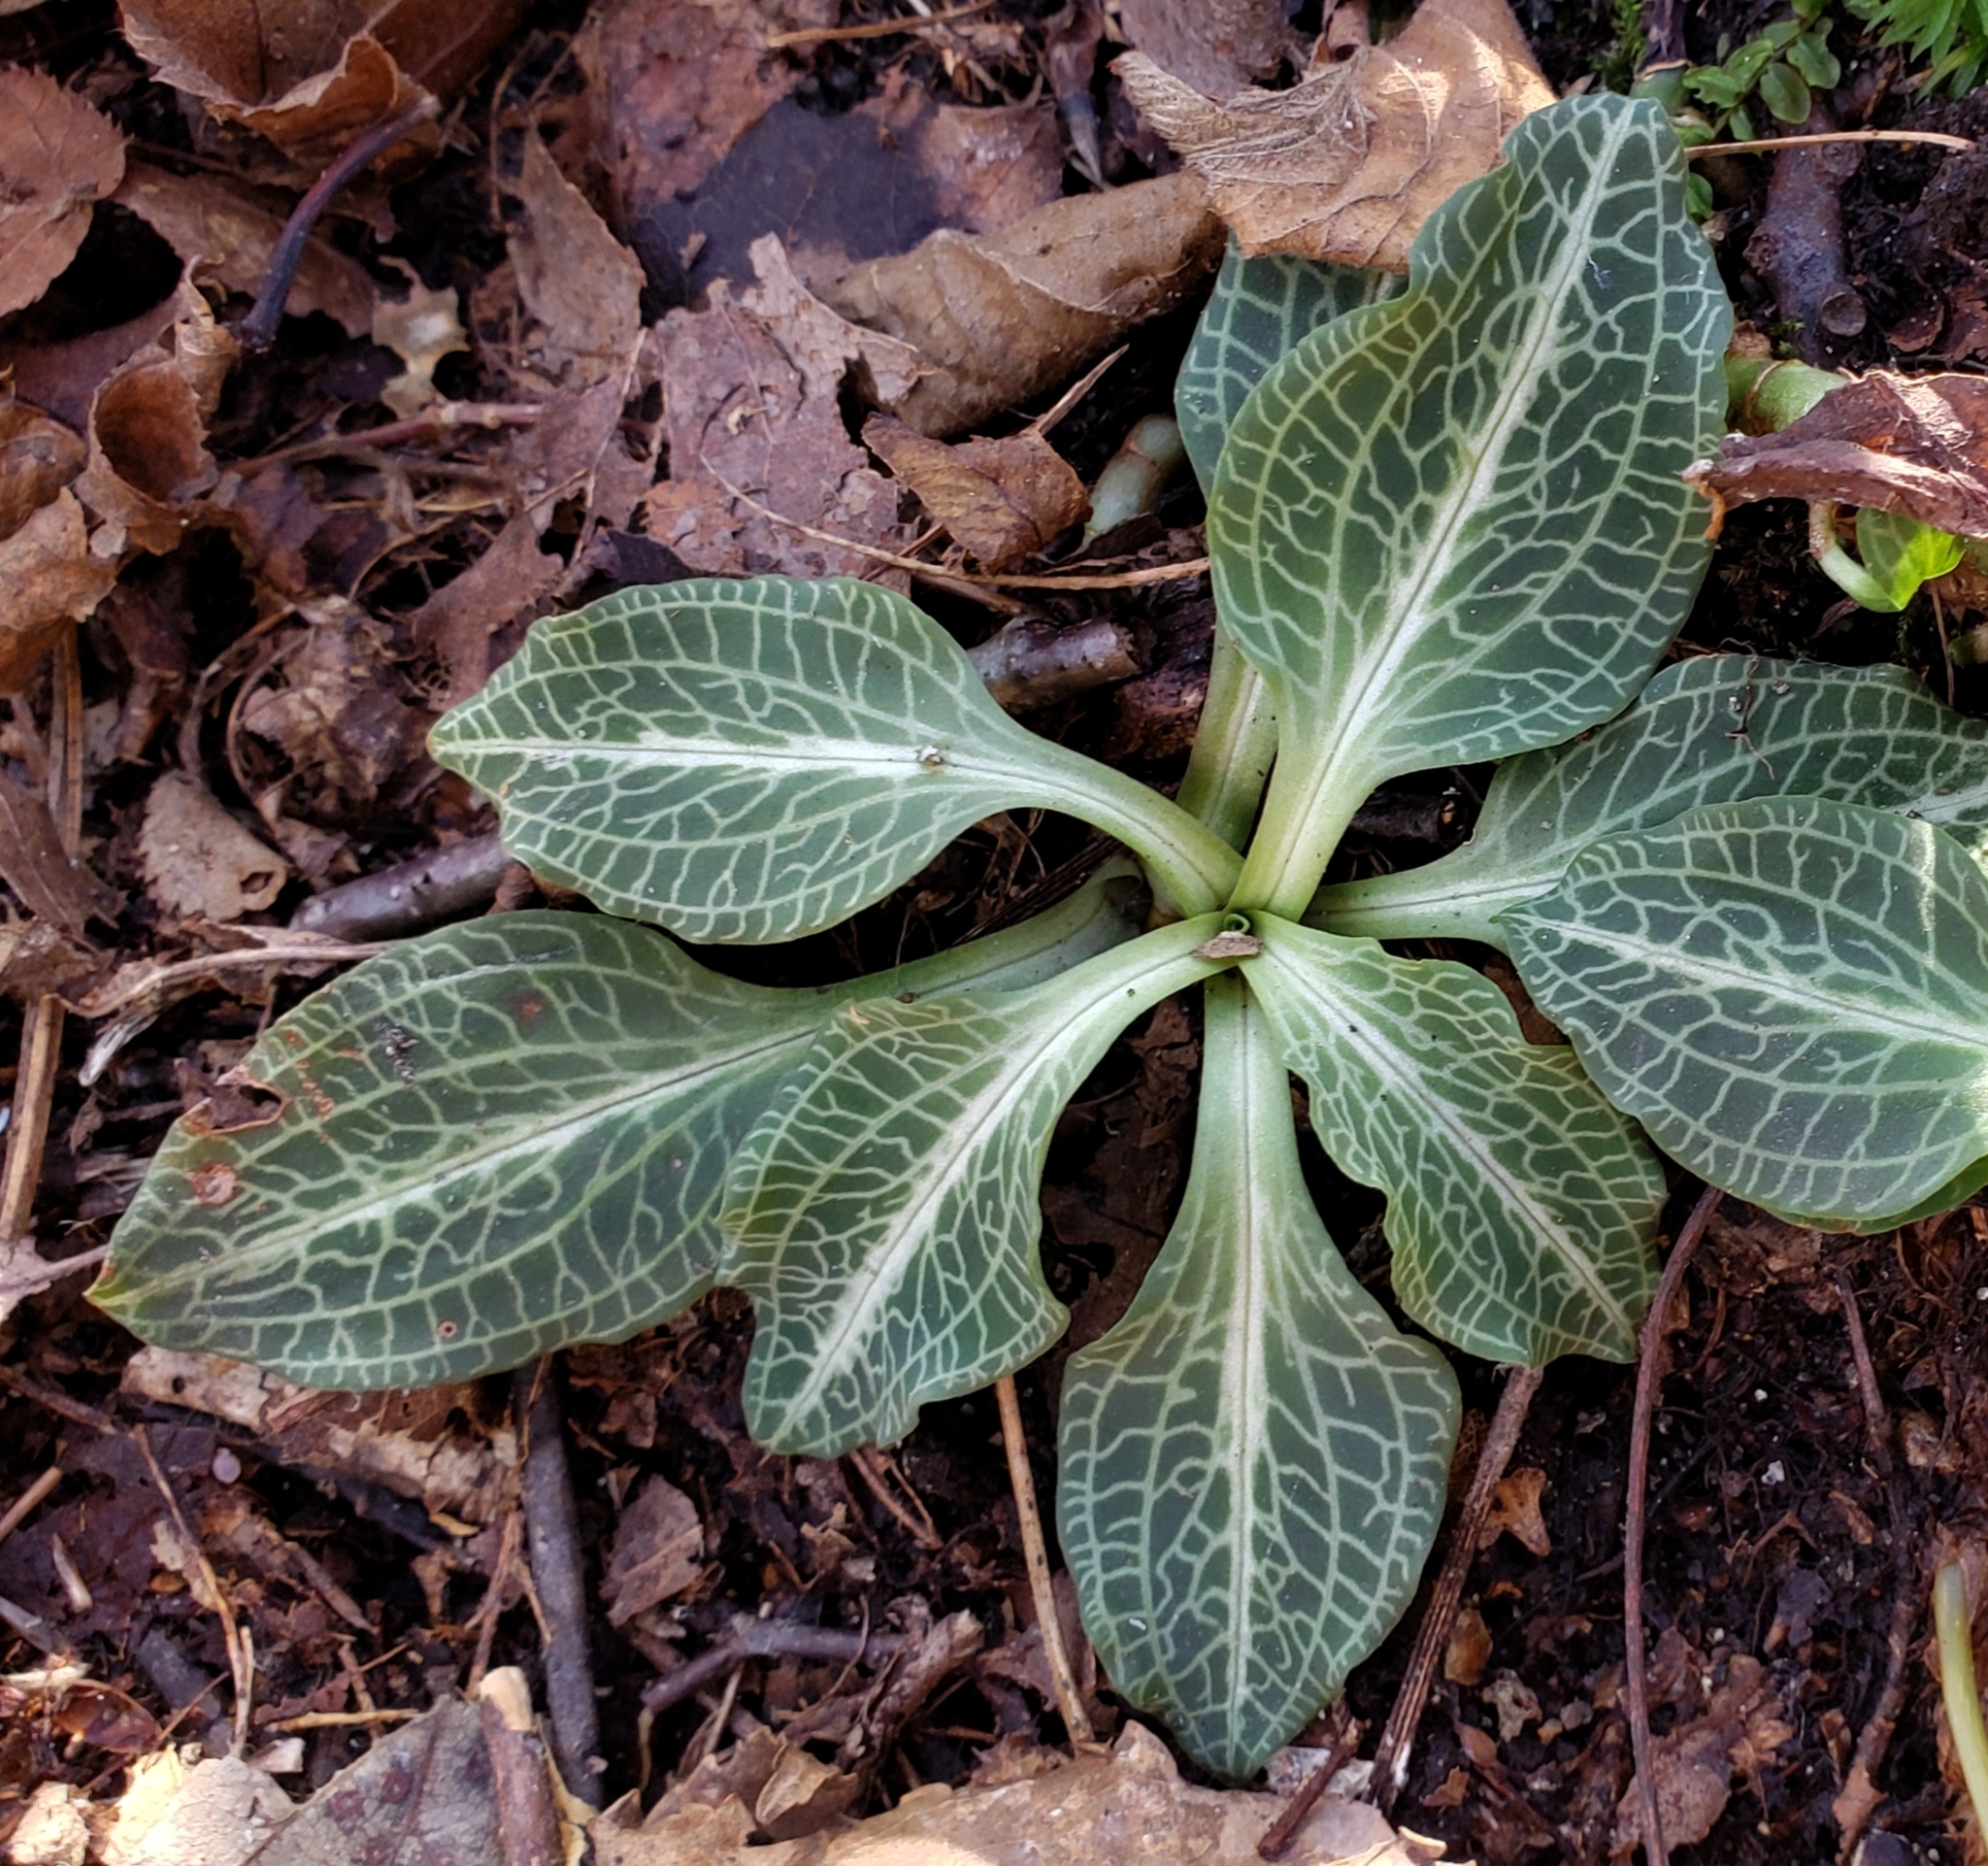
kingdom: Plantae
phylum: Tracheophyta
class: Liliopsida
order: Asparagales
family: Orchidaceae
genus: Goodyera
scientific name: Goodyera pubescens
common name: Downy rattlesnake-plantain
